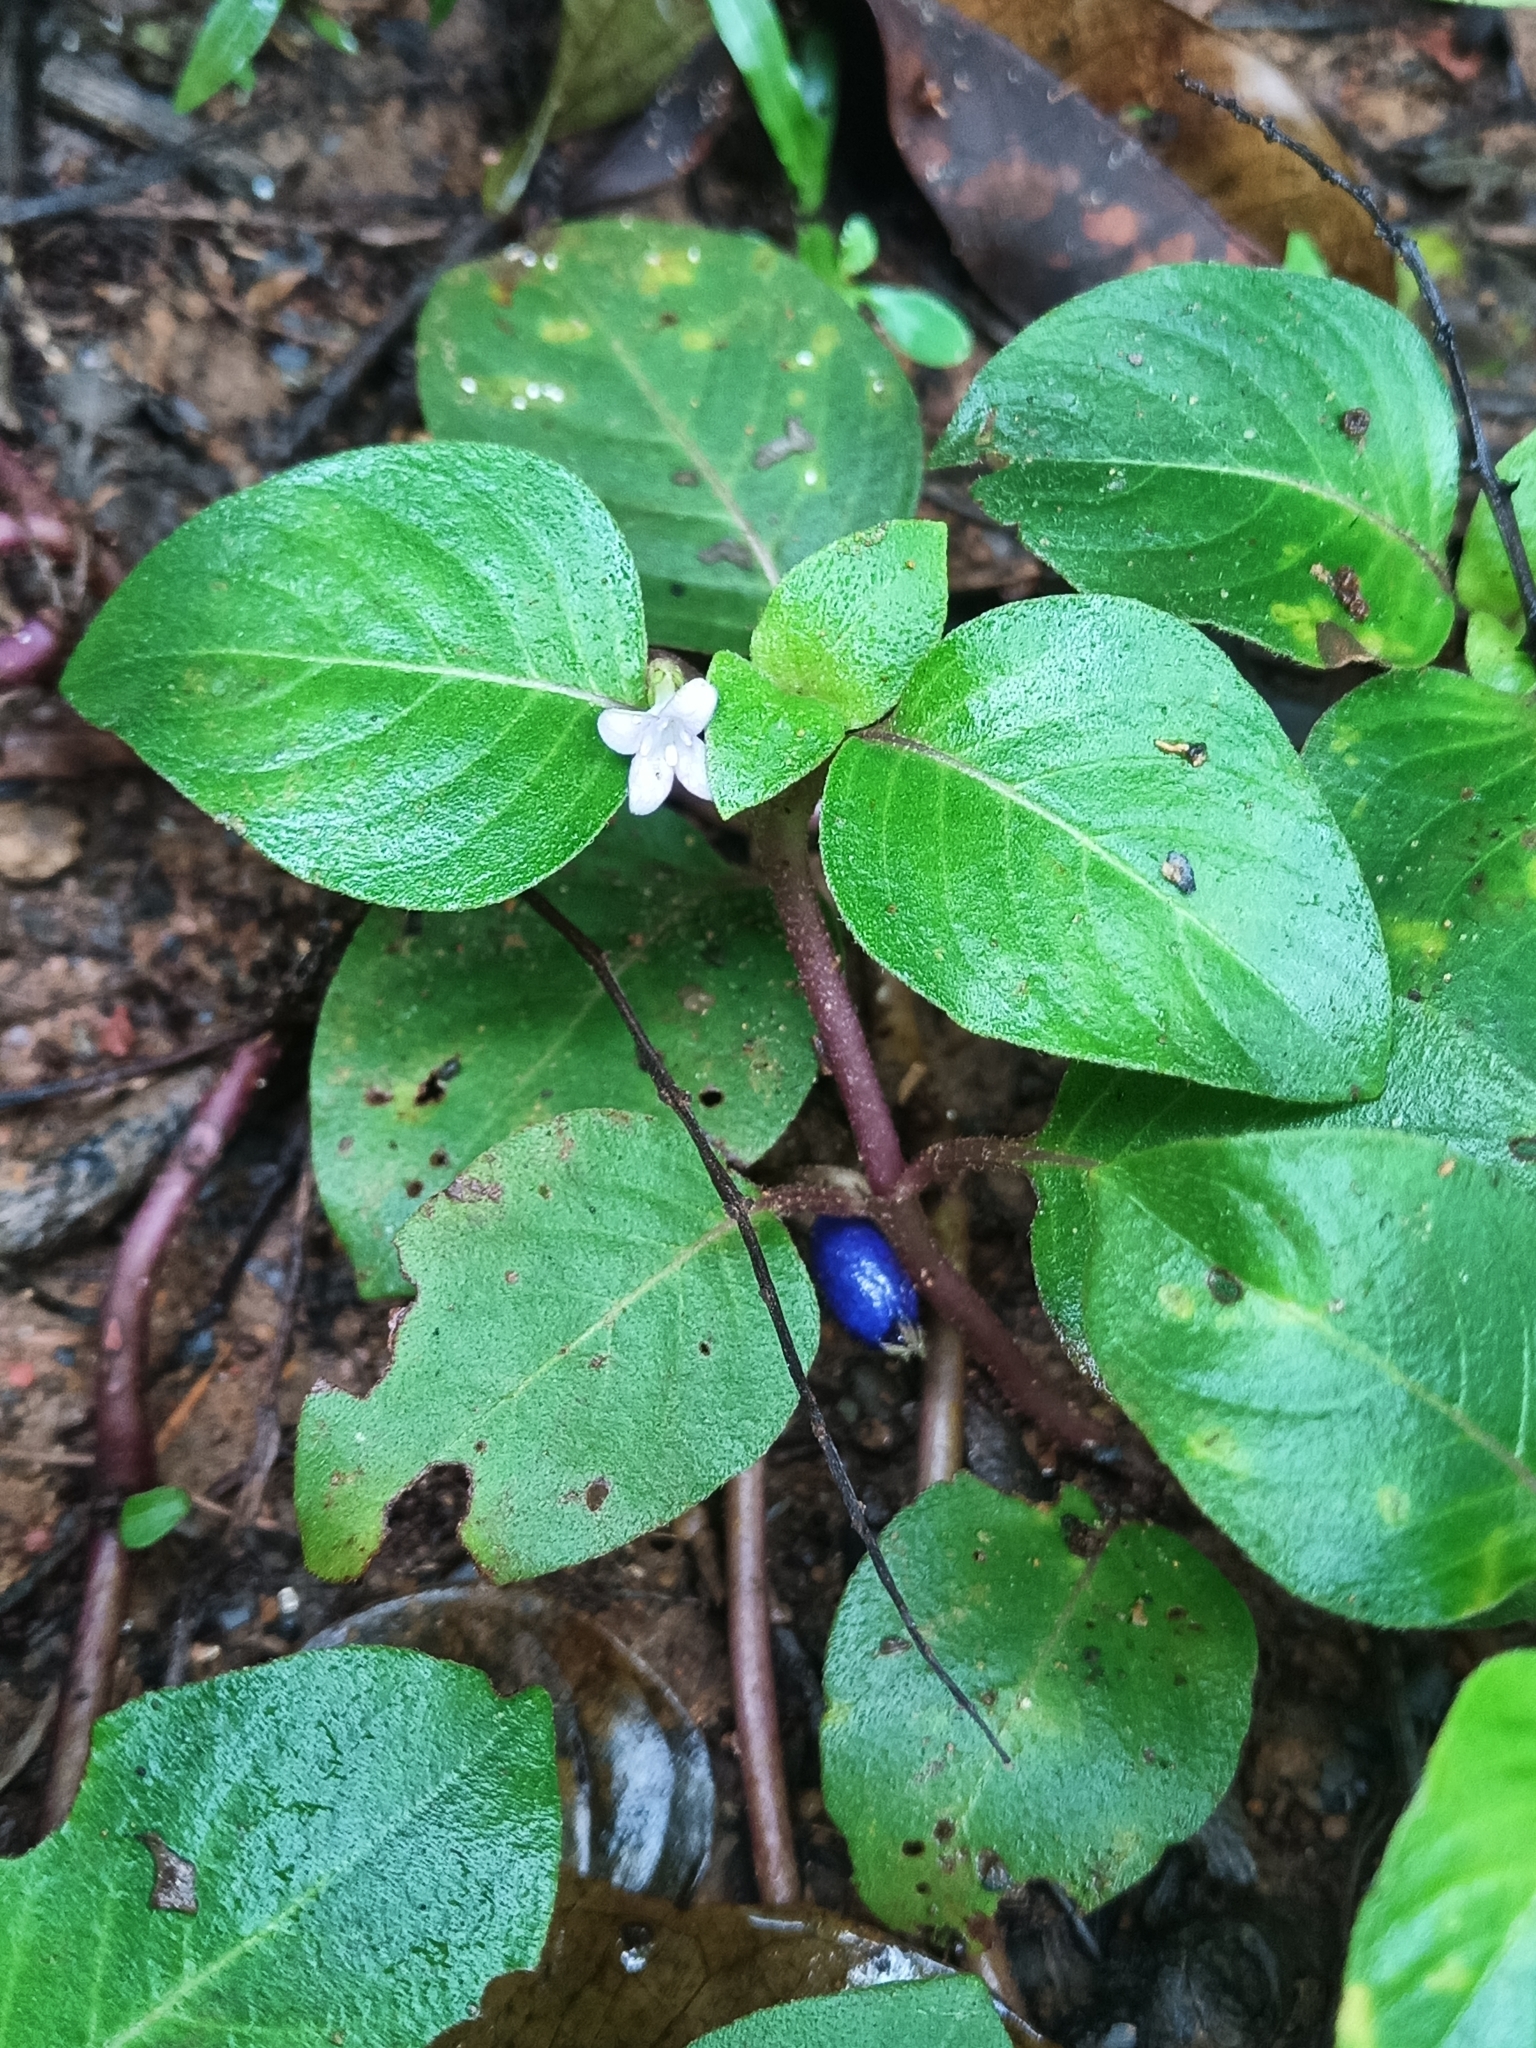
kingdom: Plantae
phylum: Tracheophyta
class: Magnoliopsida
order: Gentianales
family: Rubiaceae
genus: Coccocypselum
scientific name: Coccocypselum guianense
